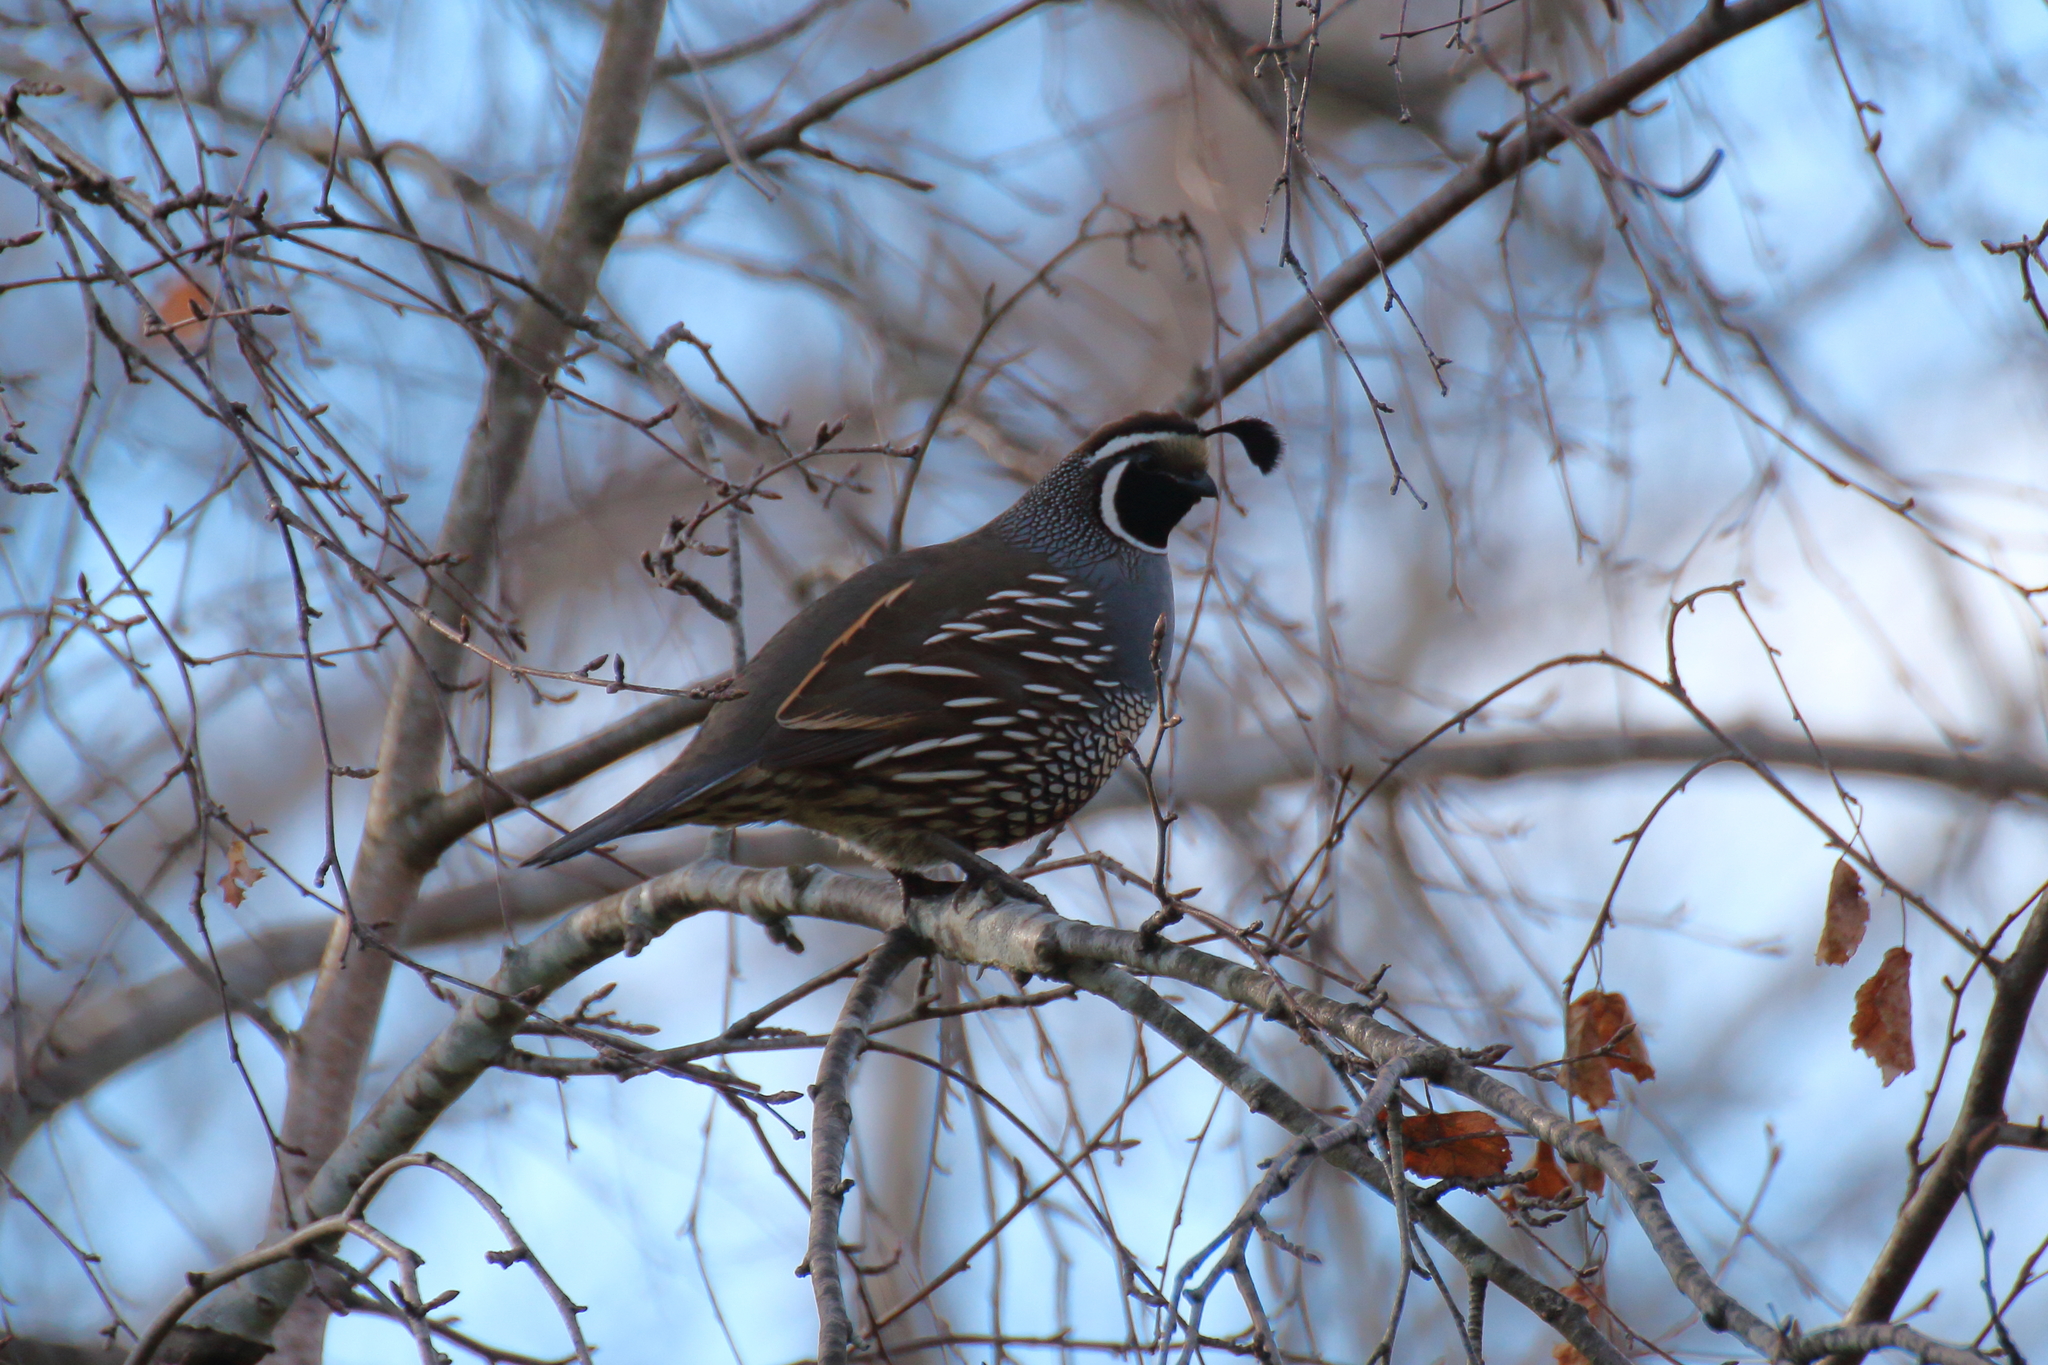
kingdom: Animalia
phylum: Chordata
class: Aves
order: Galliformes
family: Odontophoridae
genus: Callipepla
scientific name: Callipepla californica
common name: California quail
